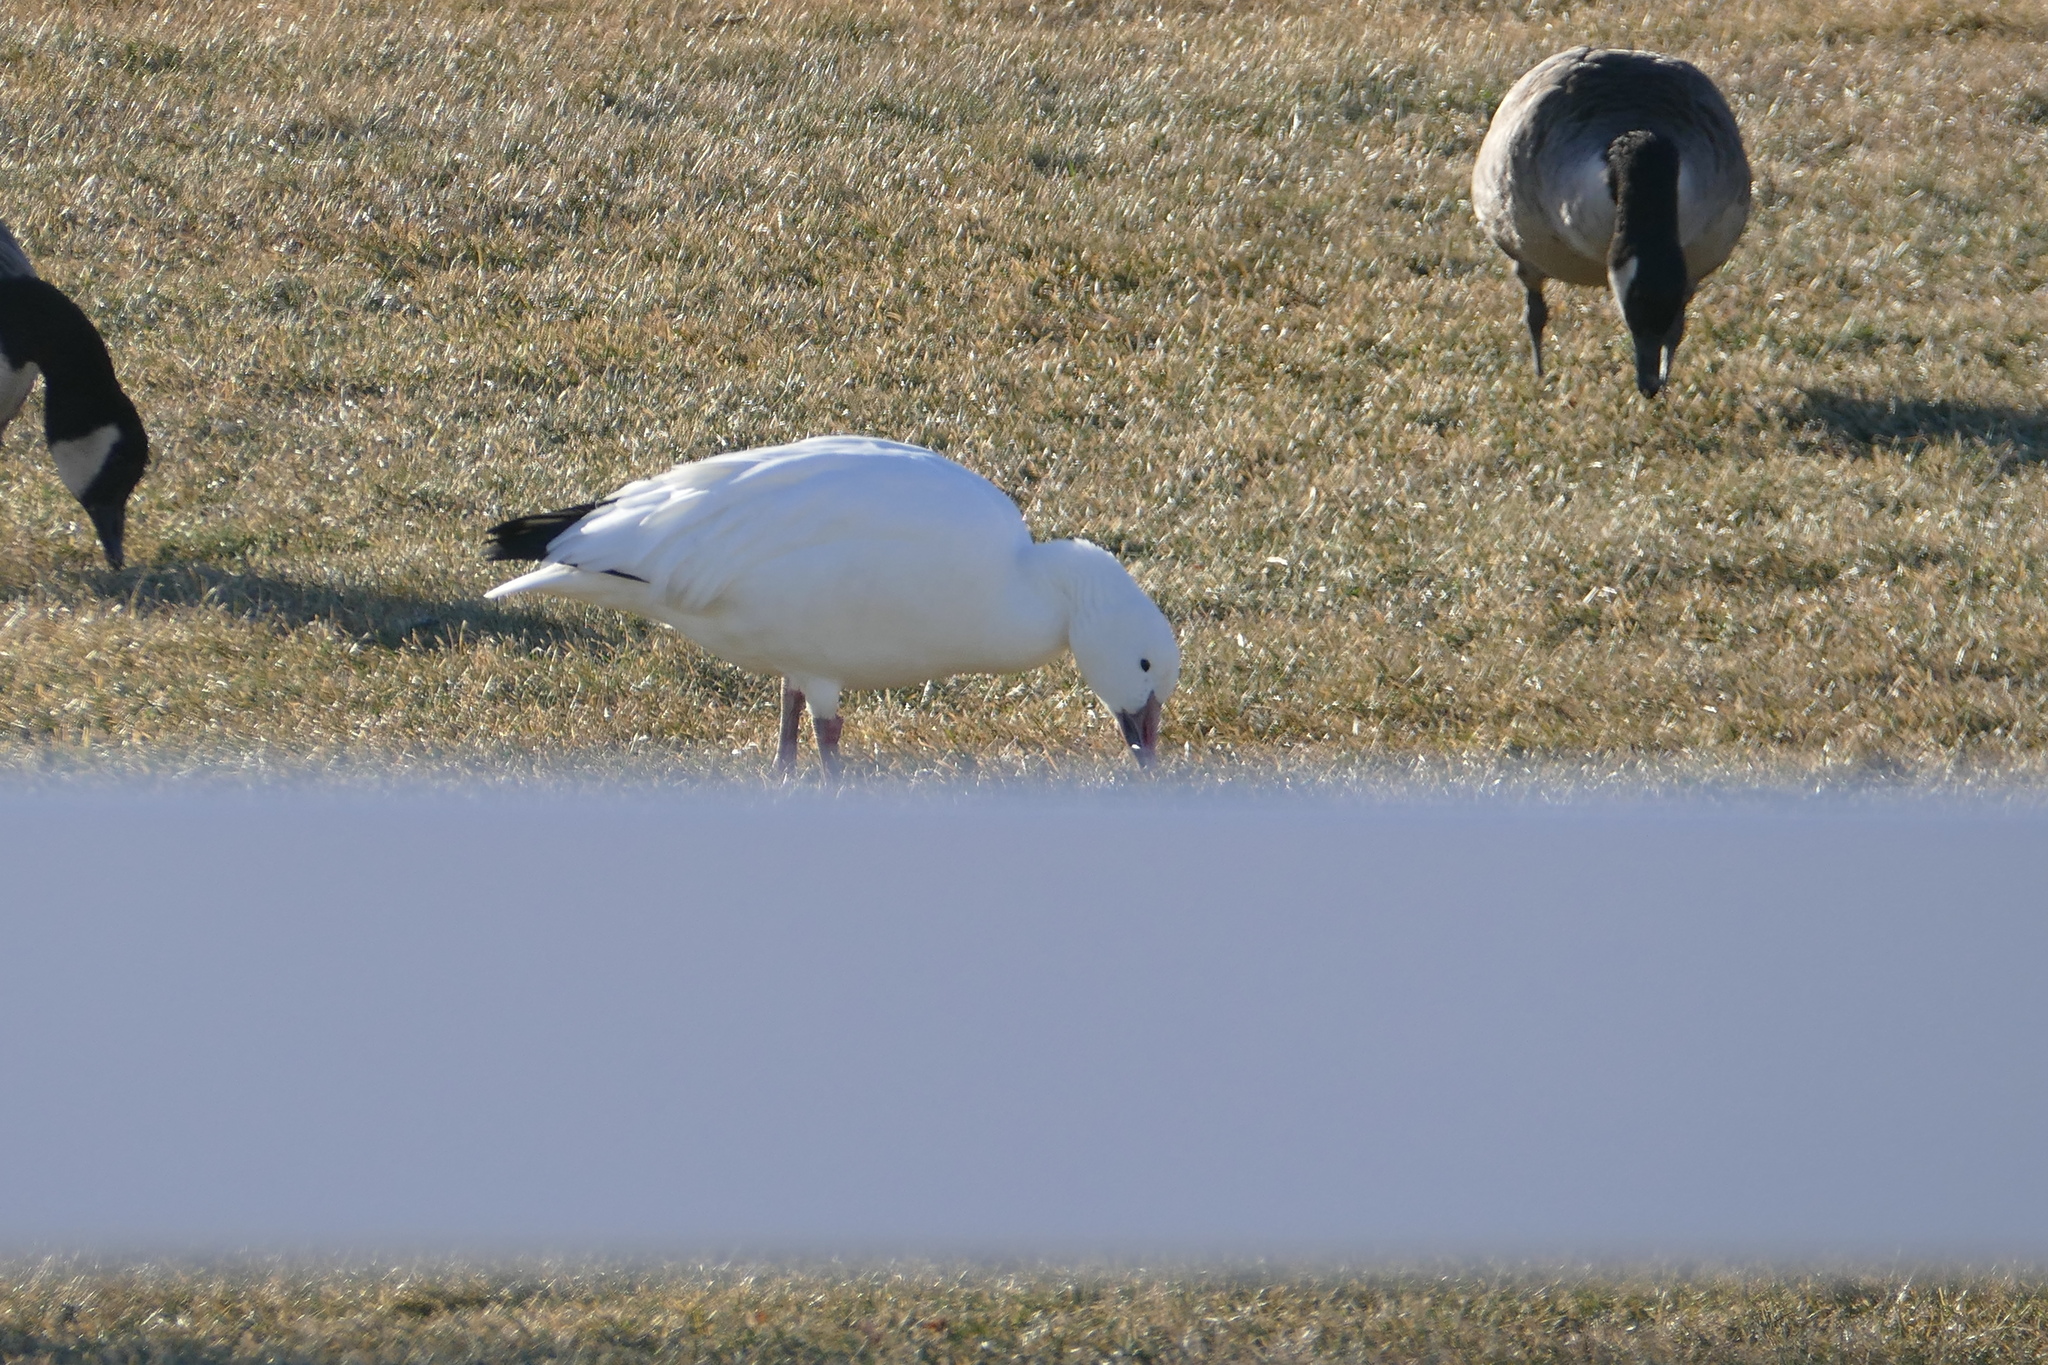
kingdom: Animalia
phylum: Chordata
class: Aves
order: Anseriformes
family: Anatidae
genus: Anser
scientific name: Anser caerulescens
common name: Snow goose
